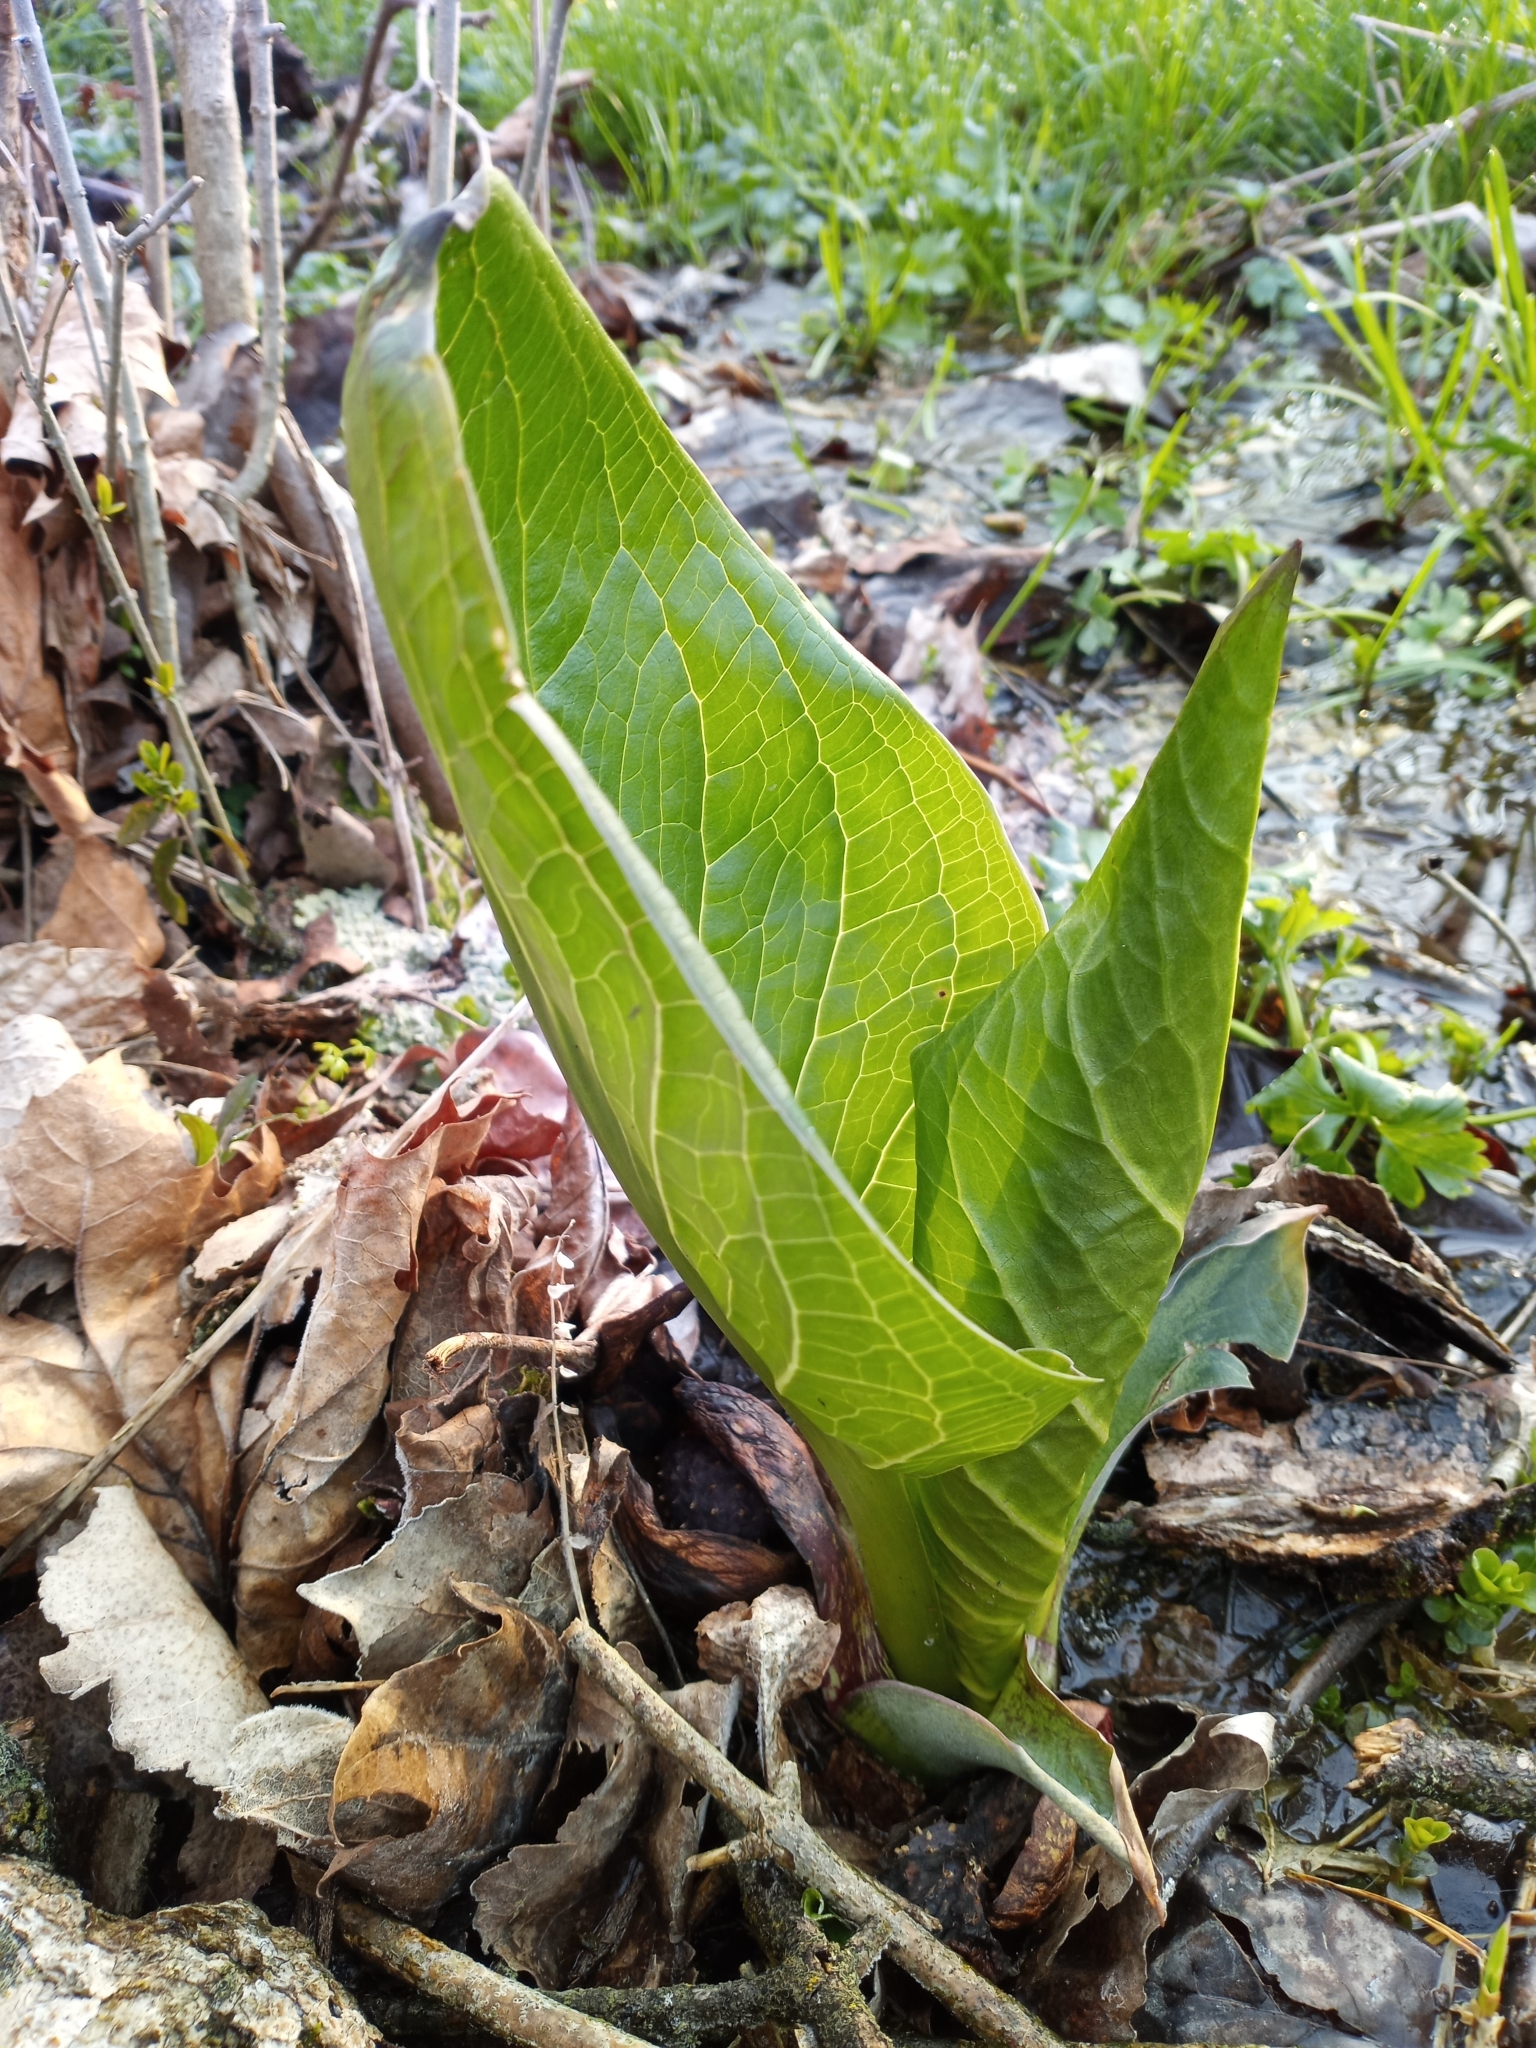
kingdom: Plantae
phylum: Tracheophyta
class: Liliopsida
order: Alismatales
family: Araceae
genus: Symplocarpus
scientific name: Symplocarpus foetidus
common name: Eastern skunk cabbage
